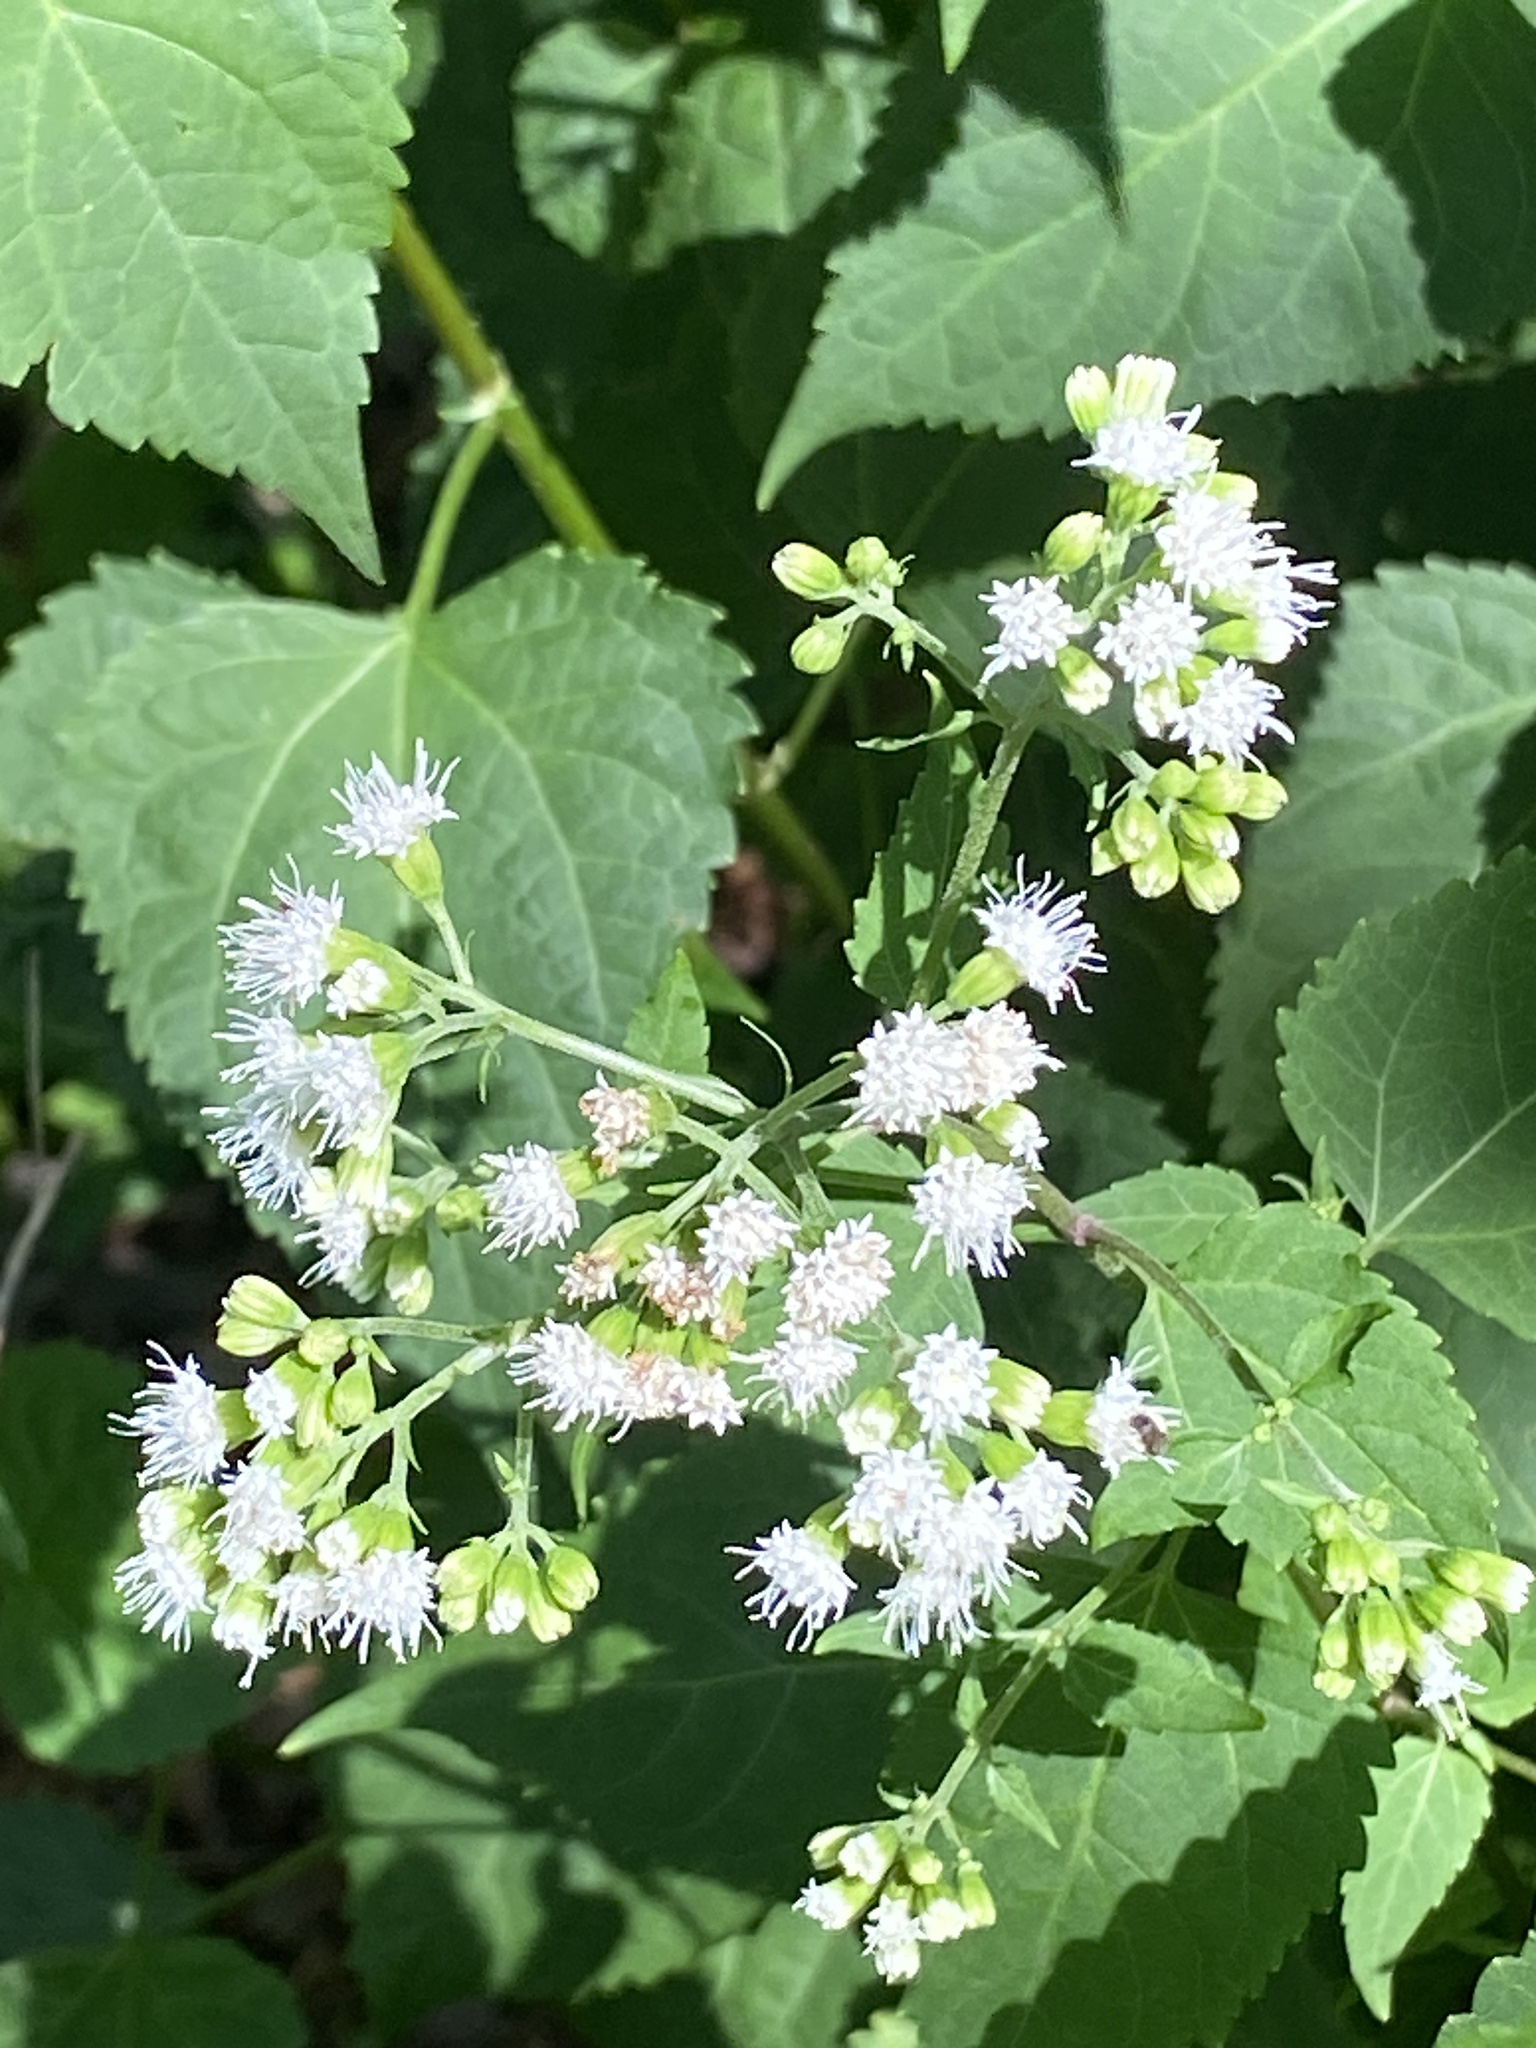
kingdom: Plantae
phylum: Tracheophyta
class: Magnoliopsida
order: Asterales
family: Asteraceae
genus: Ageratina
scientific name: Ageratina altissima
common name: White snakeroot
